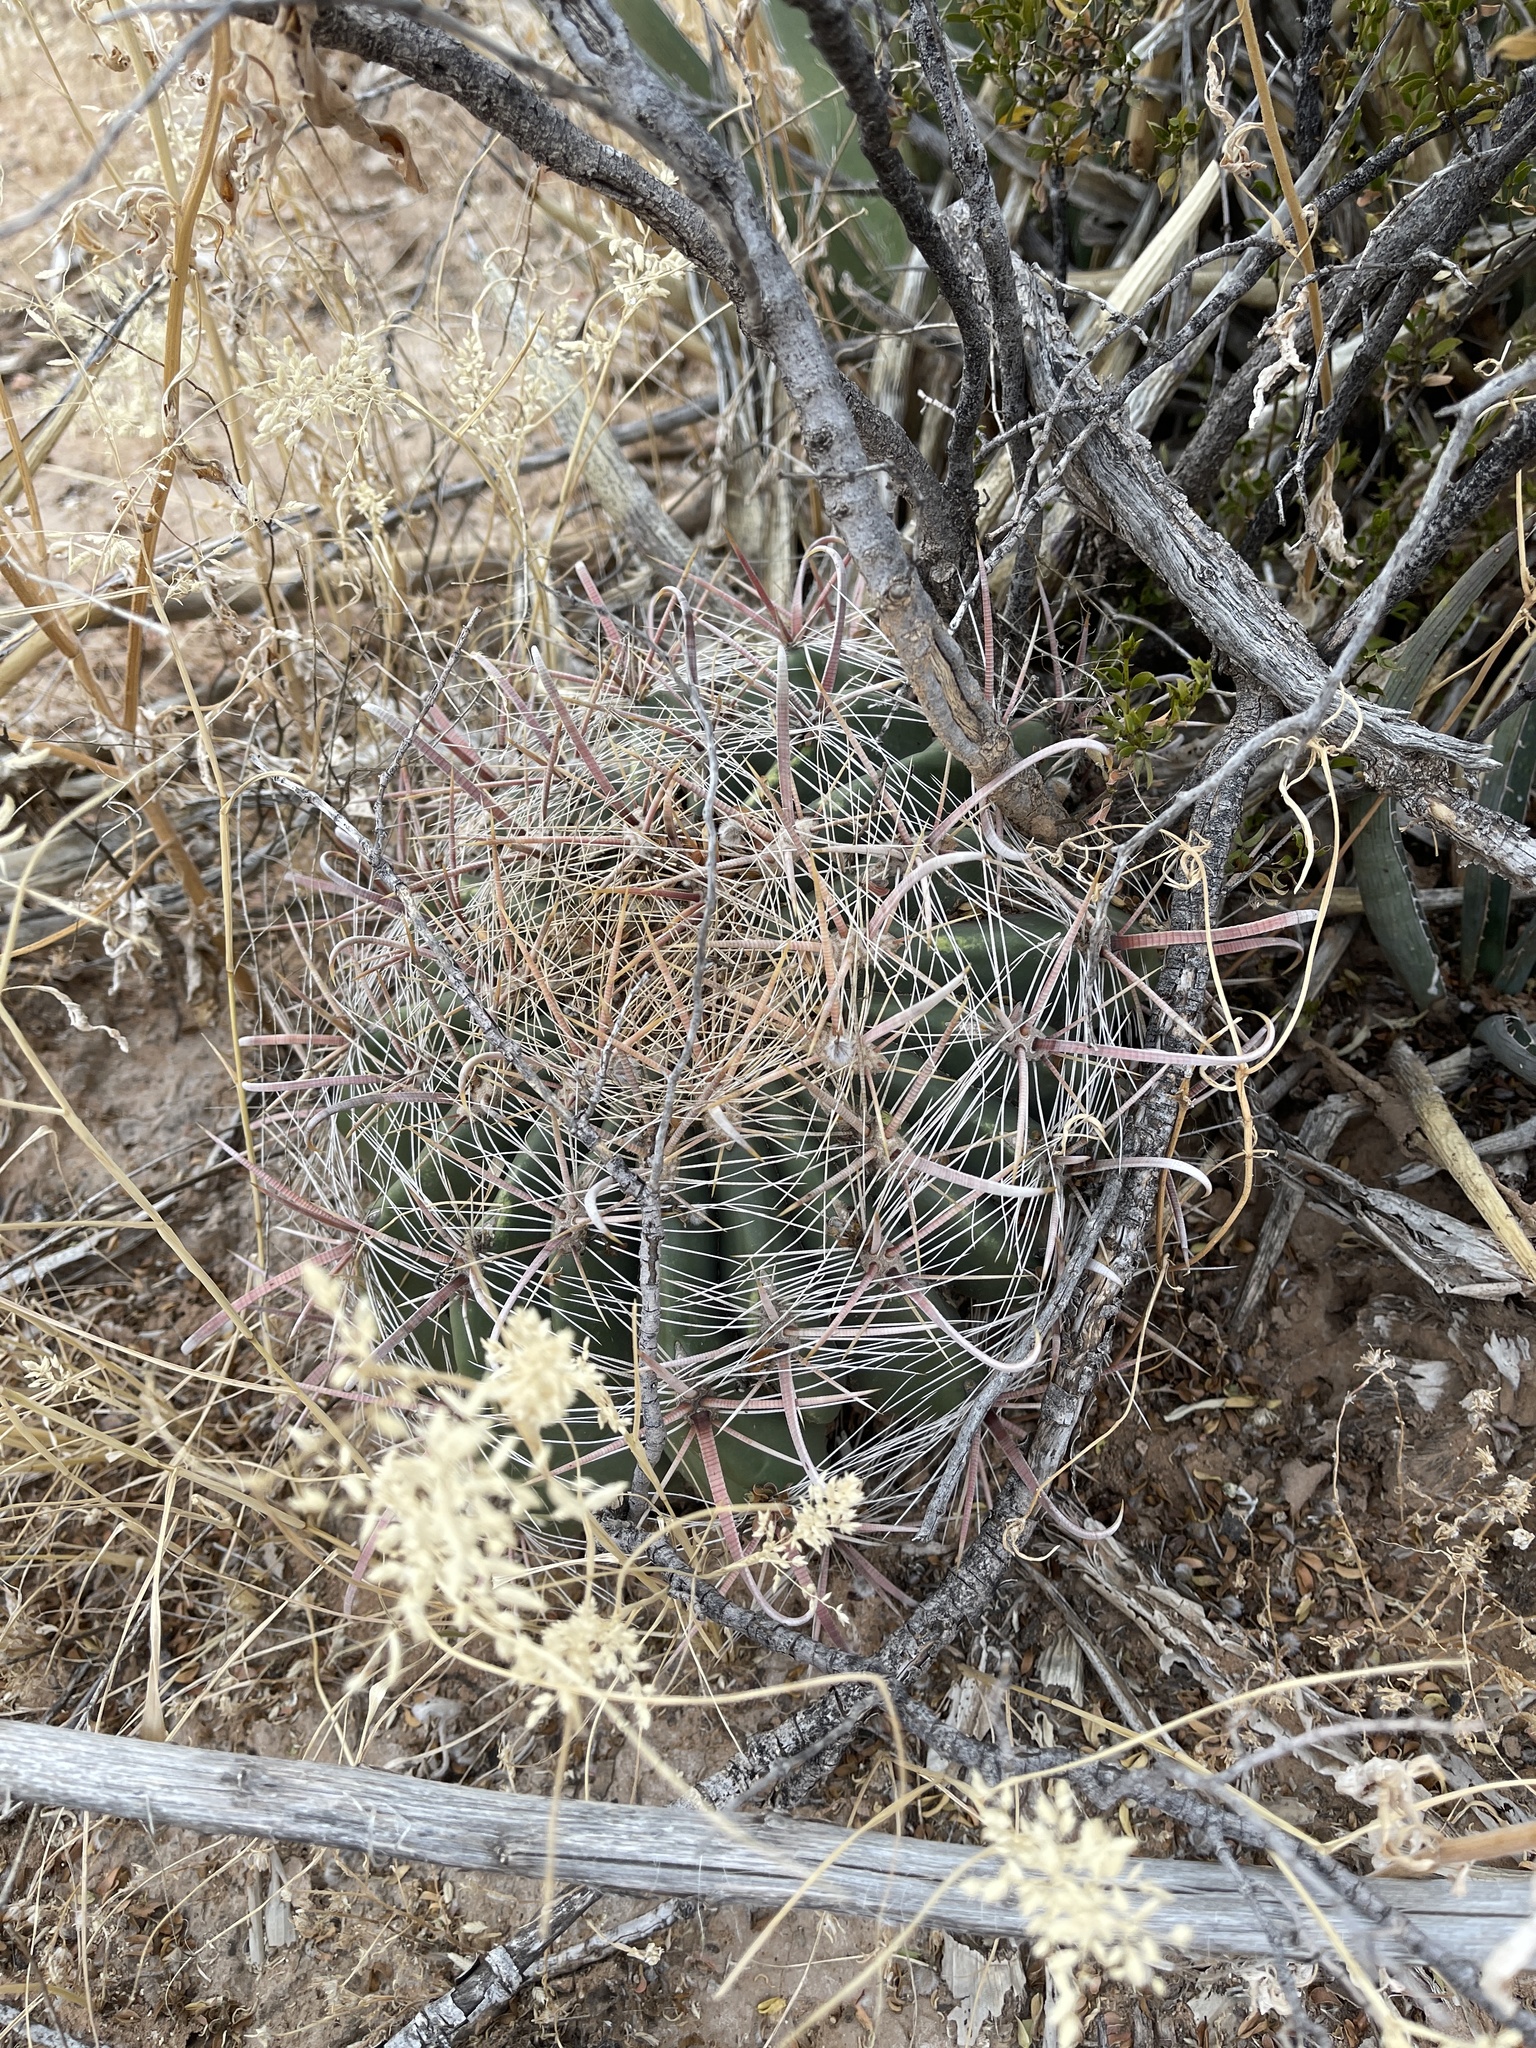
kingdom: Plantae
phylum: Tracheophyta
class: Magnoliopsida
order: Caryophyllales
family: Cactaceae
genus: Ferocactus
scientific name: Ferocactus wislizeni
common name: Candy barrel cactus
